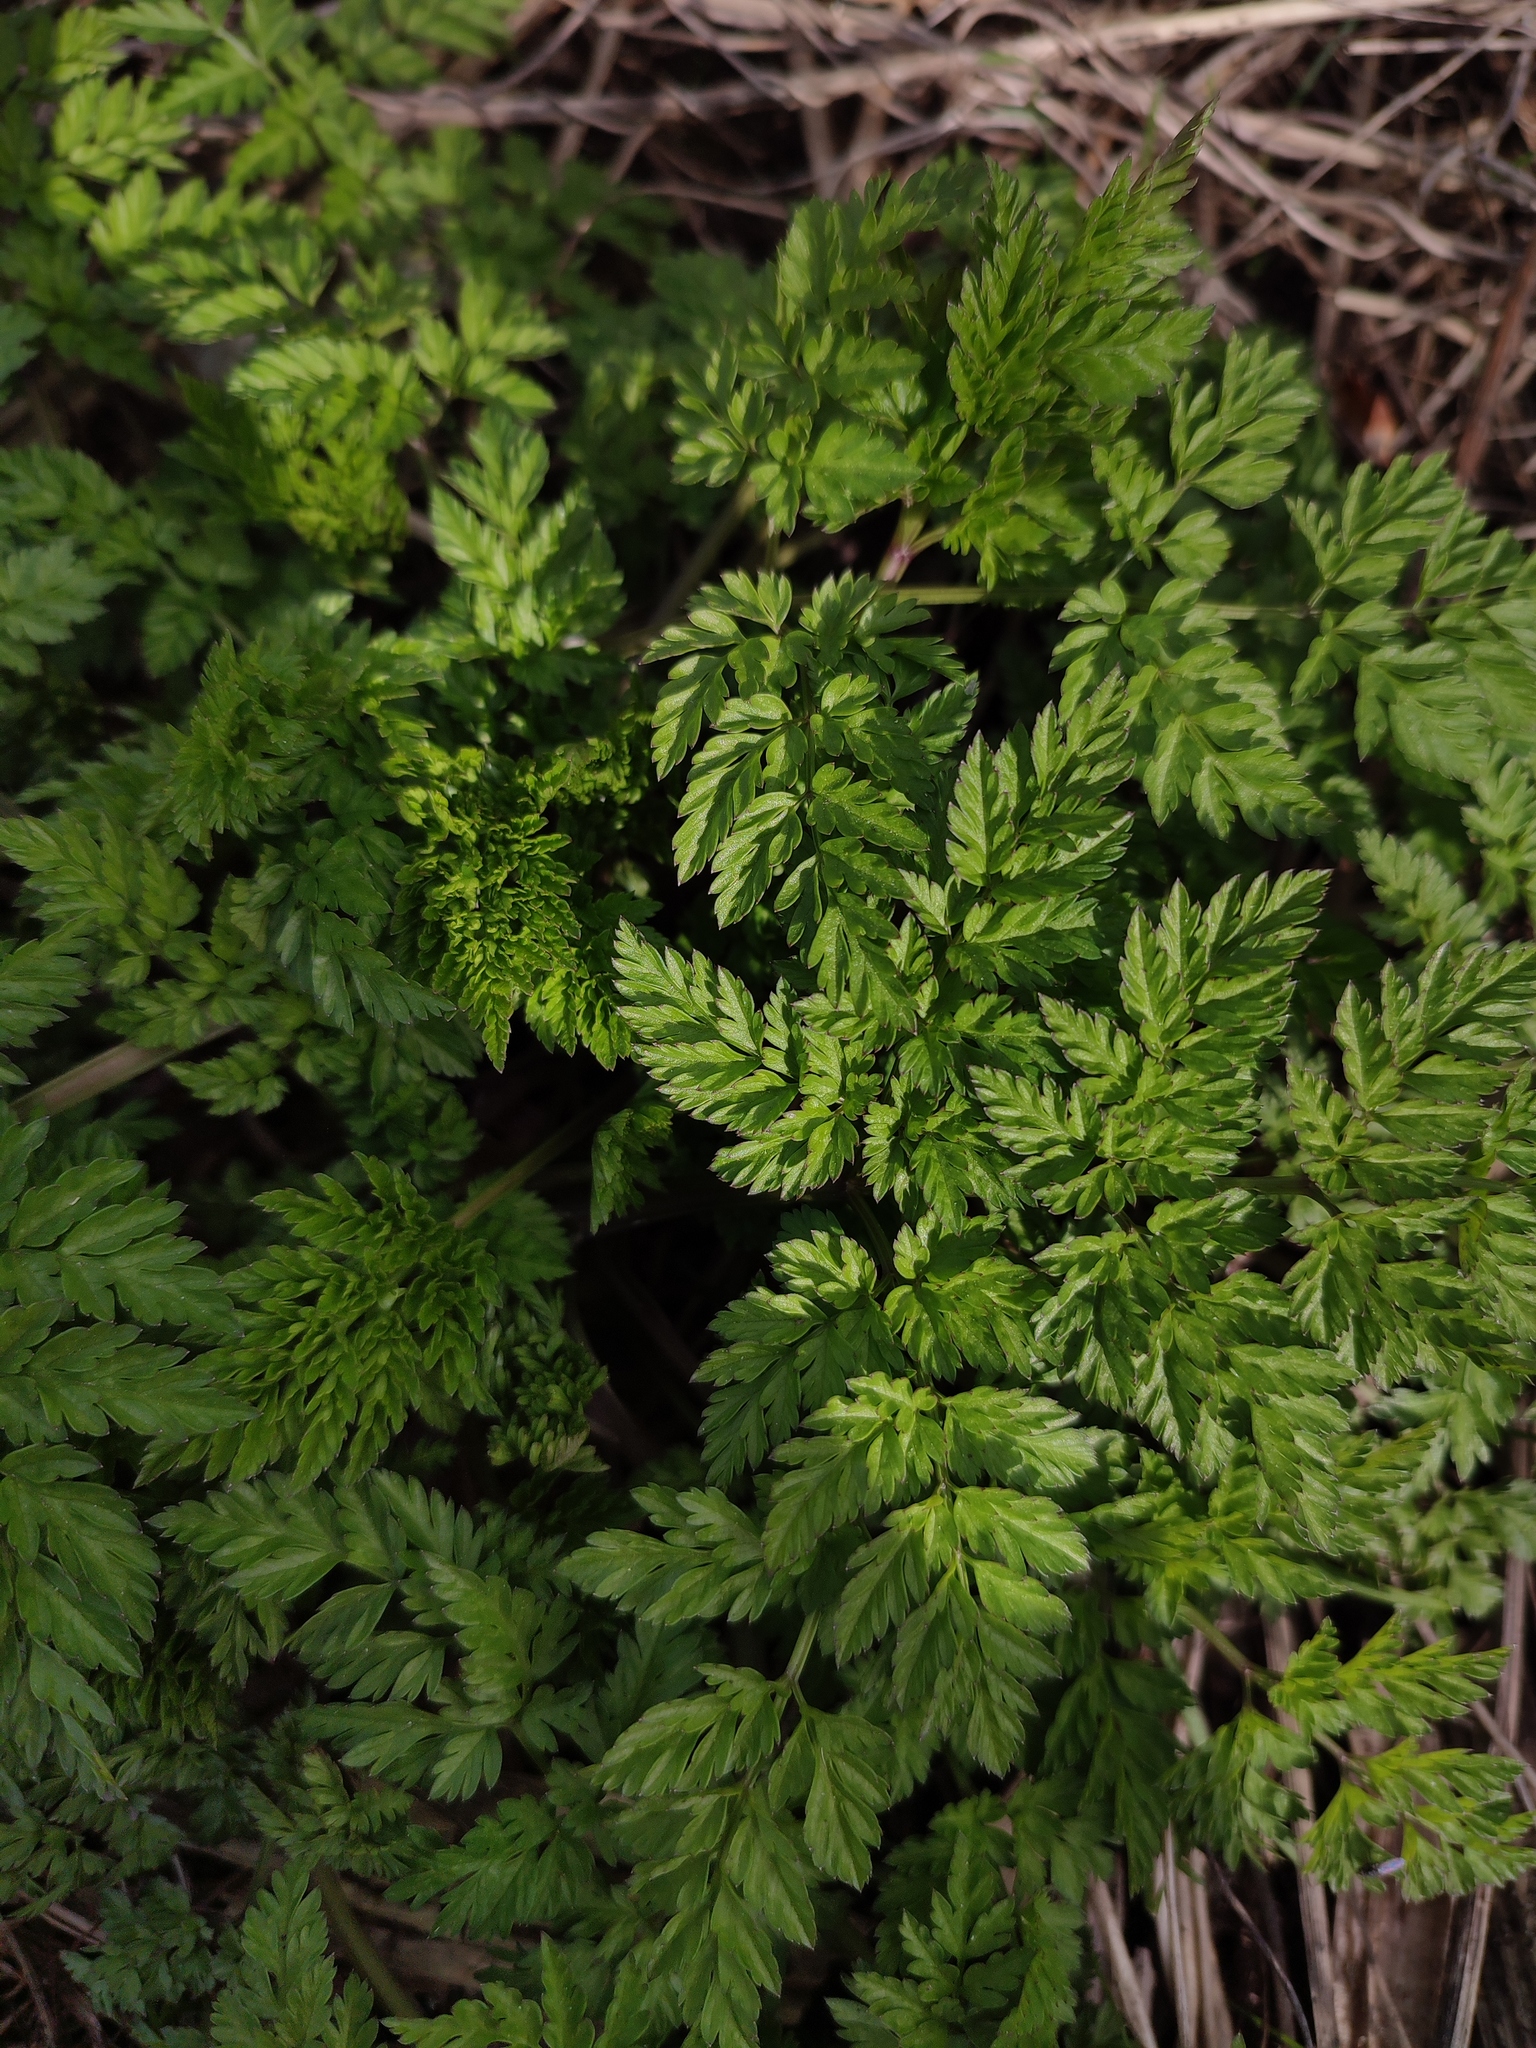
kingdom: Plantae
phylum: Tracheophyta
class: Magnoliopsida
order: Apiales
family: Apiaceae
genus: Anthriscus
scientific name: Anthriscus sylvestris
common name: Cow parsley
